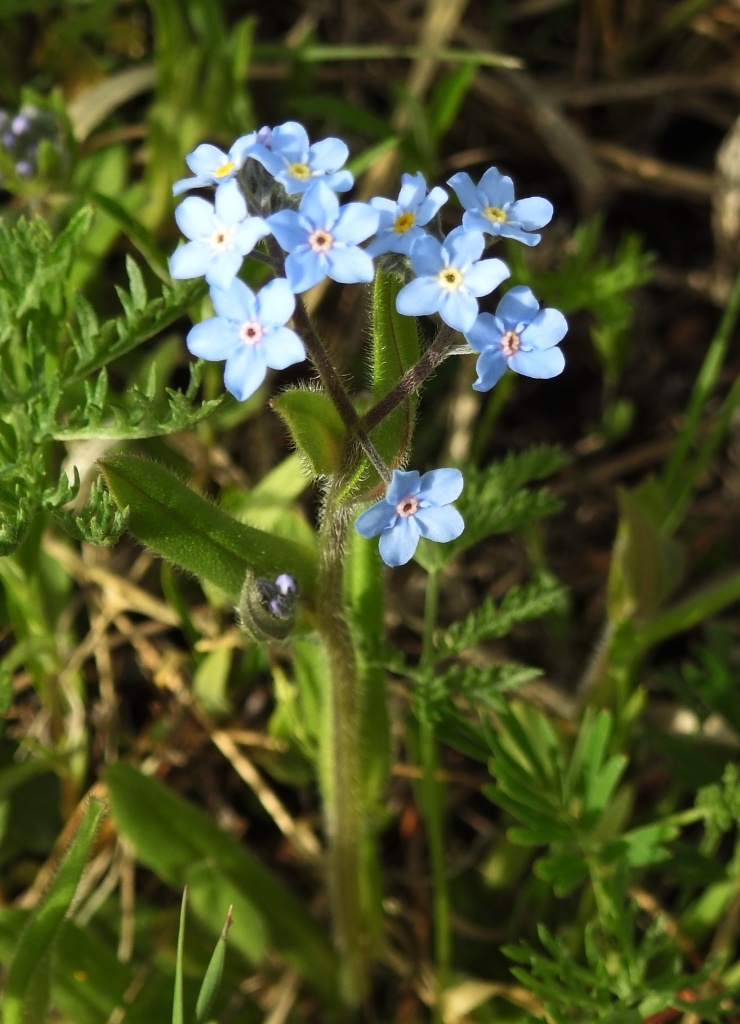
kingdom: Plantae
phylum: Tracheophyta
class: Magnoliopsida
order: Boraginales
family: Boraginaceae
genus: Myosotis
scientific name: Myosotis imitata
